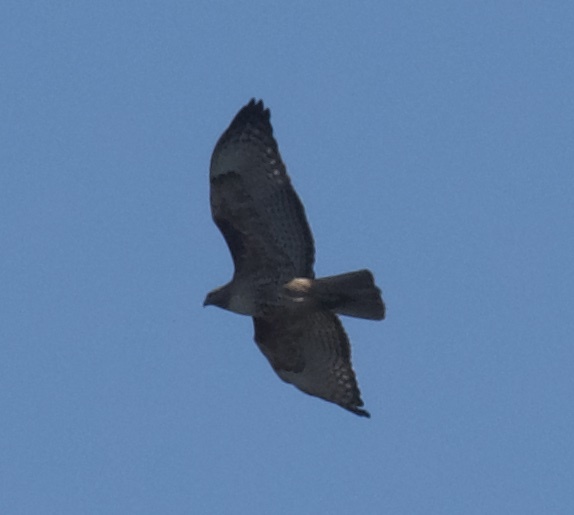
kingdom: Animalia
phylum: Chordata
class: Aves
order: Accipitriformes
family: Accipitridae
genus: Buteo
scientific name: Buteo jamaicensis
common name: Red-tailed hawk
